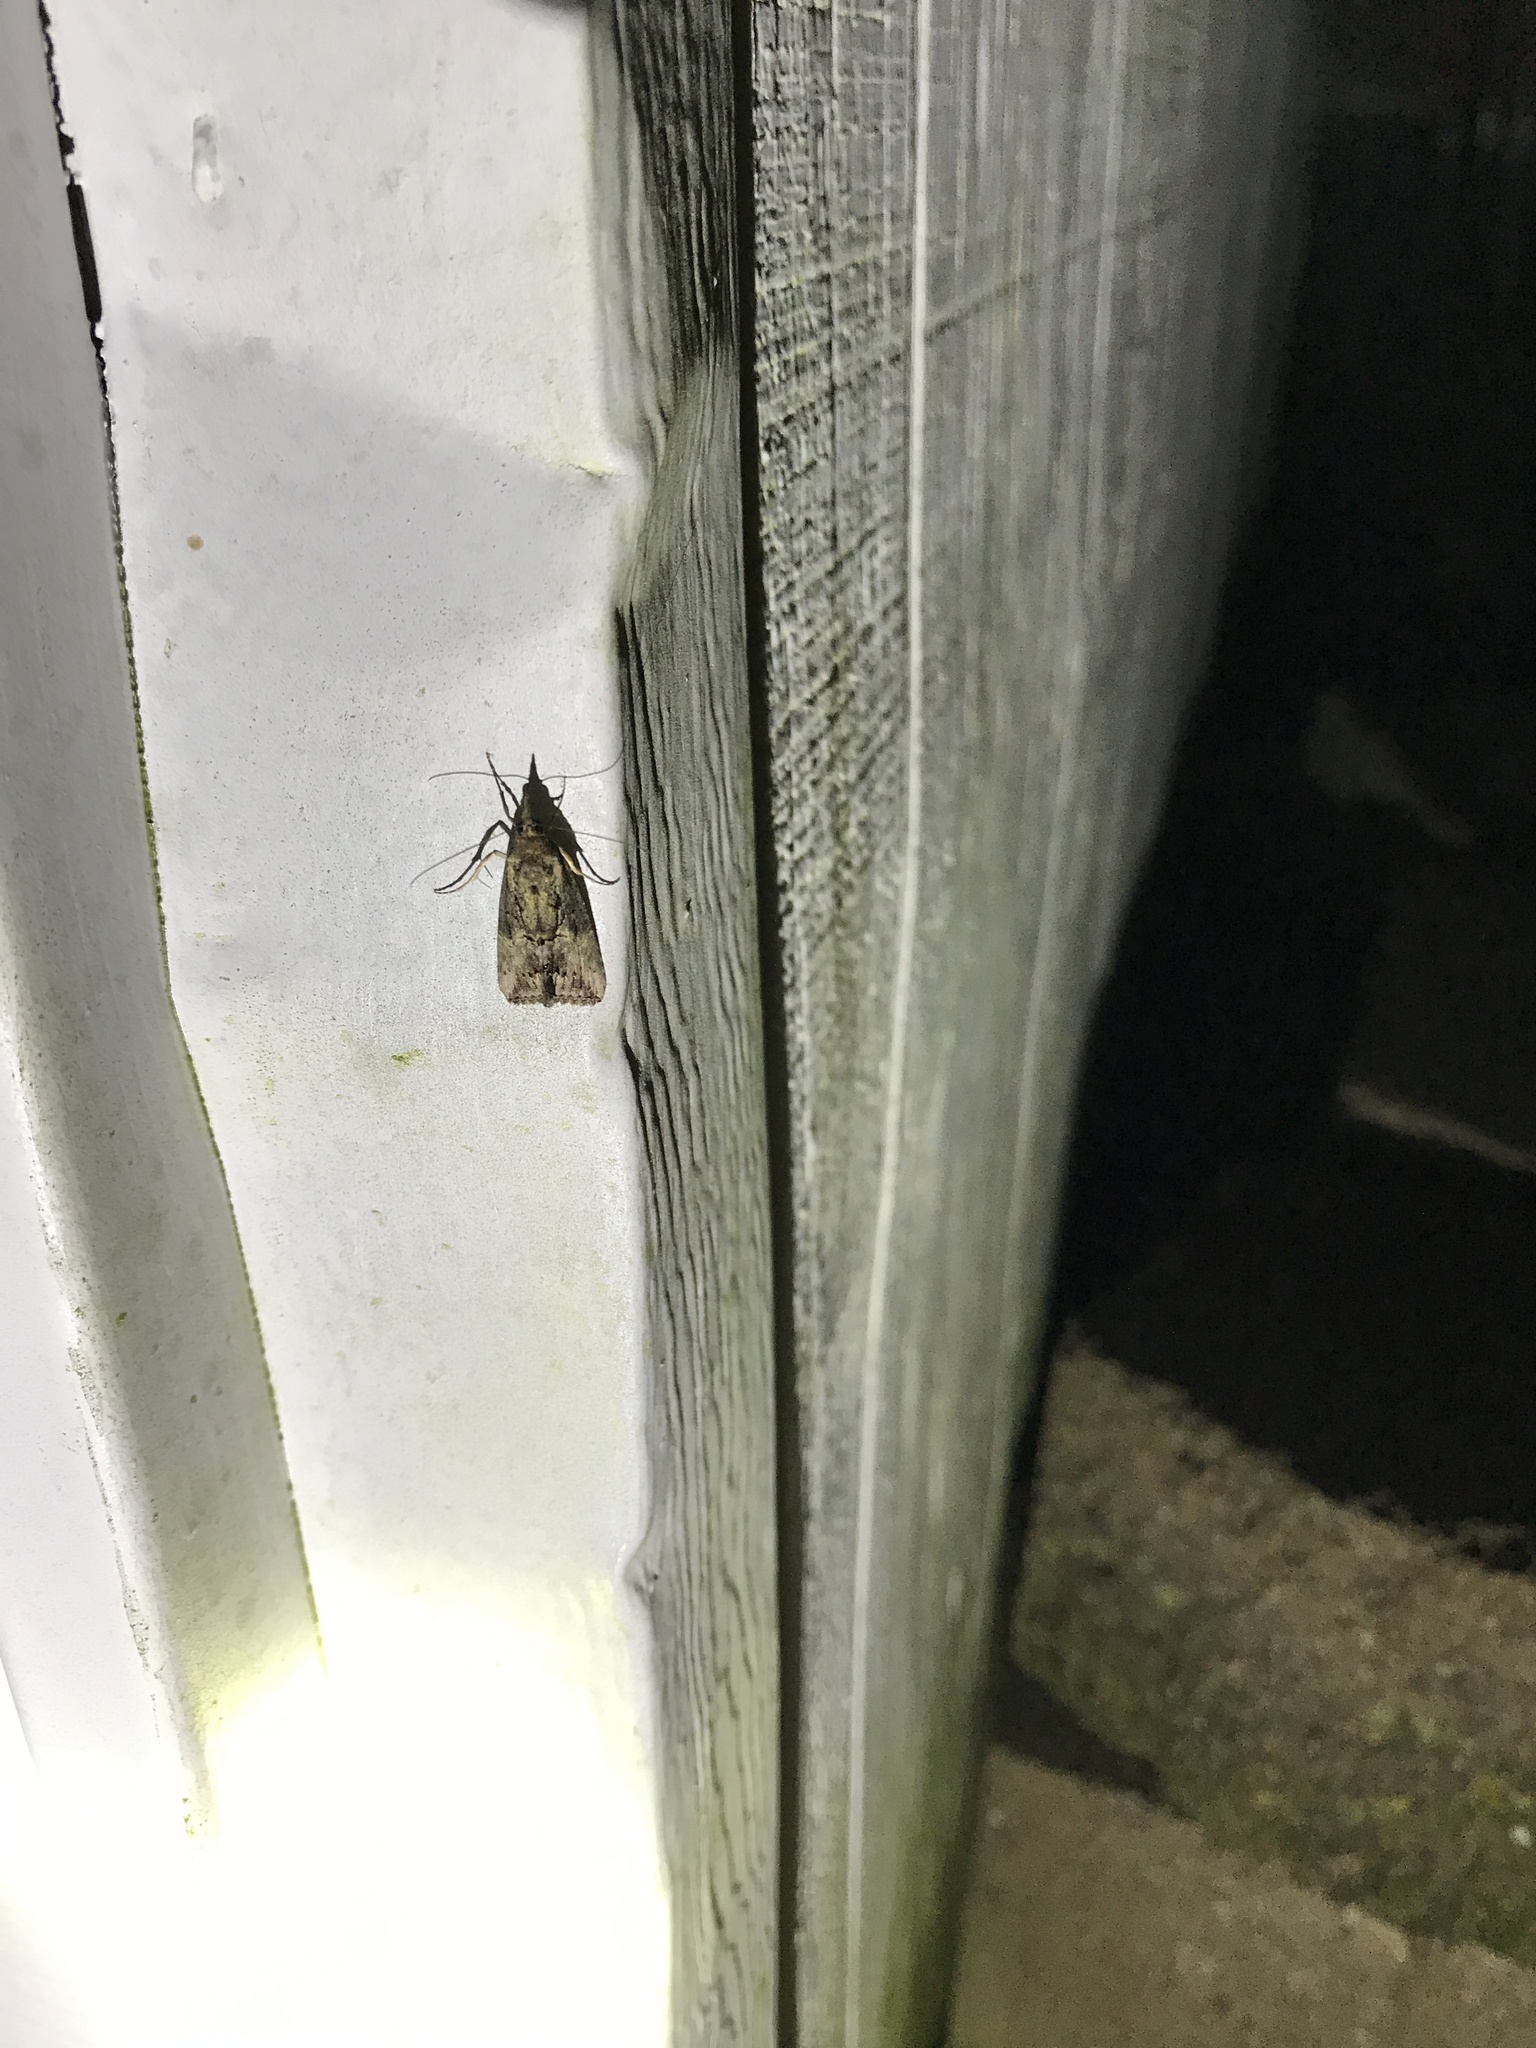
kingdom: Animalia
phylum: Arthropoda
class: Insecta
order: Lepidoptera
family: Erebidae
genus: Hypena
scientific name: Hypena scabra
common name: Green cloverworm
